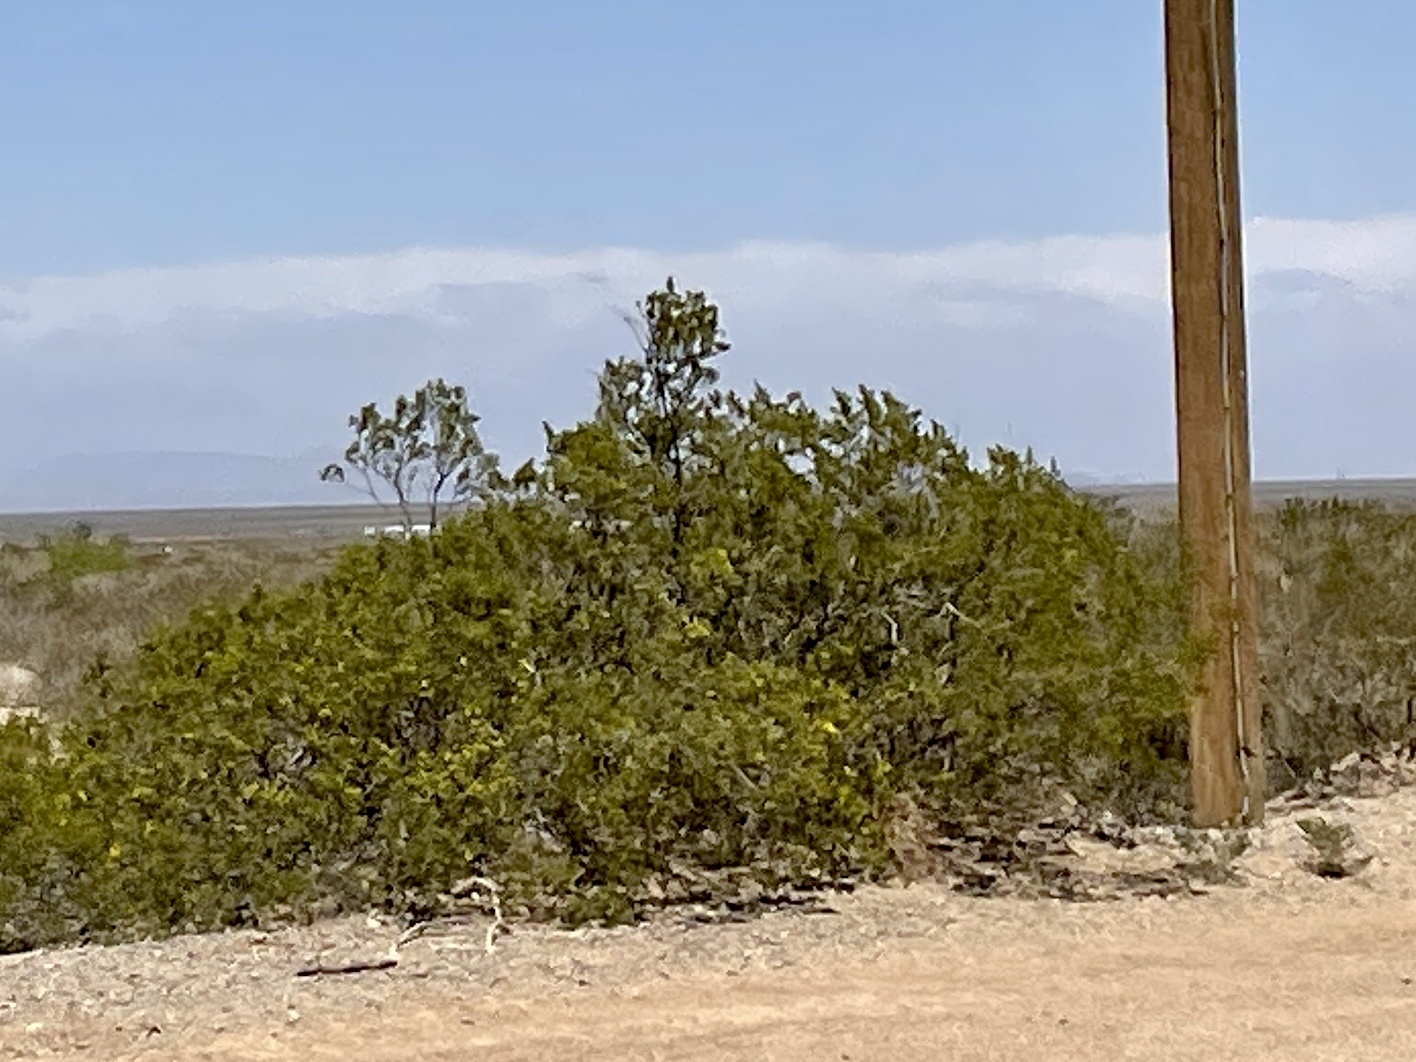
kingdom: Plantae
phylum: Tracheophyta
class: Magnoliopsida
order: Zygophyllales
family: Zygophyllaceae
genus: Larrea
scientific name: Larrea tridentata
